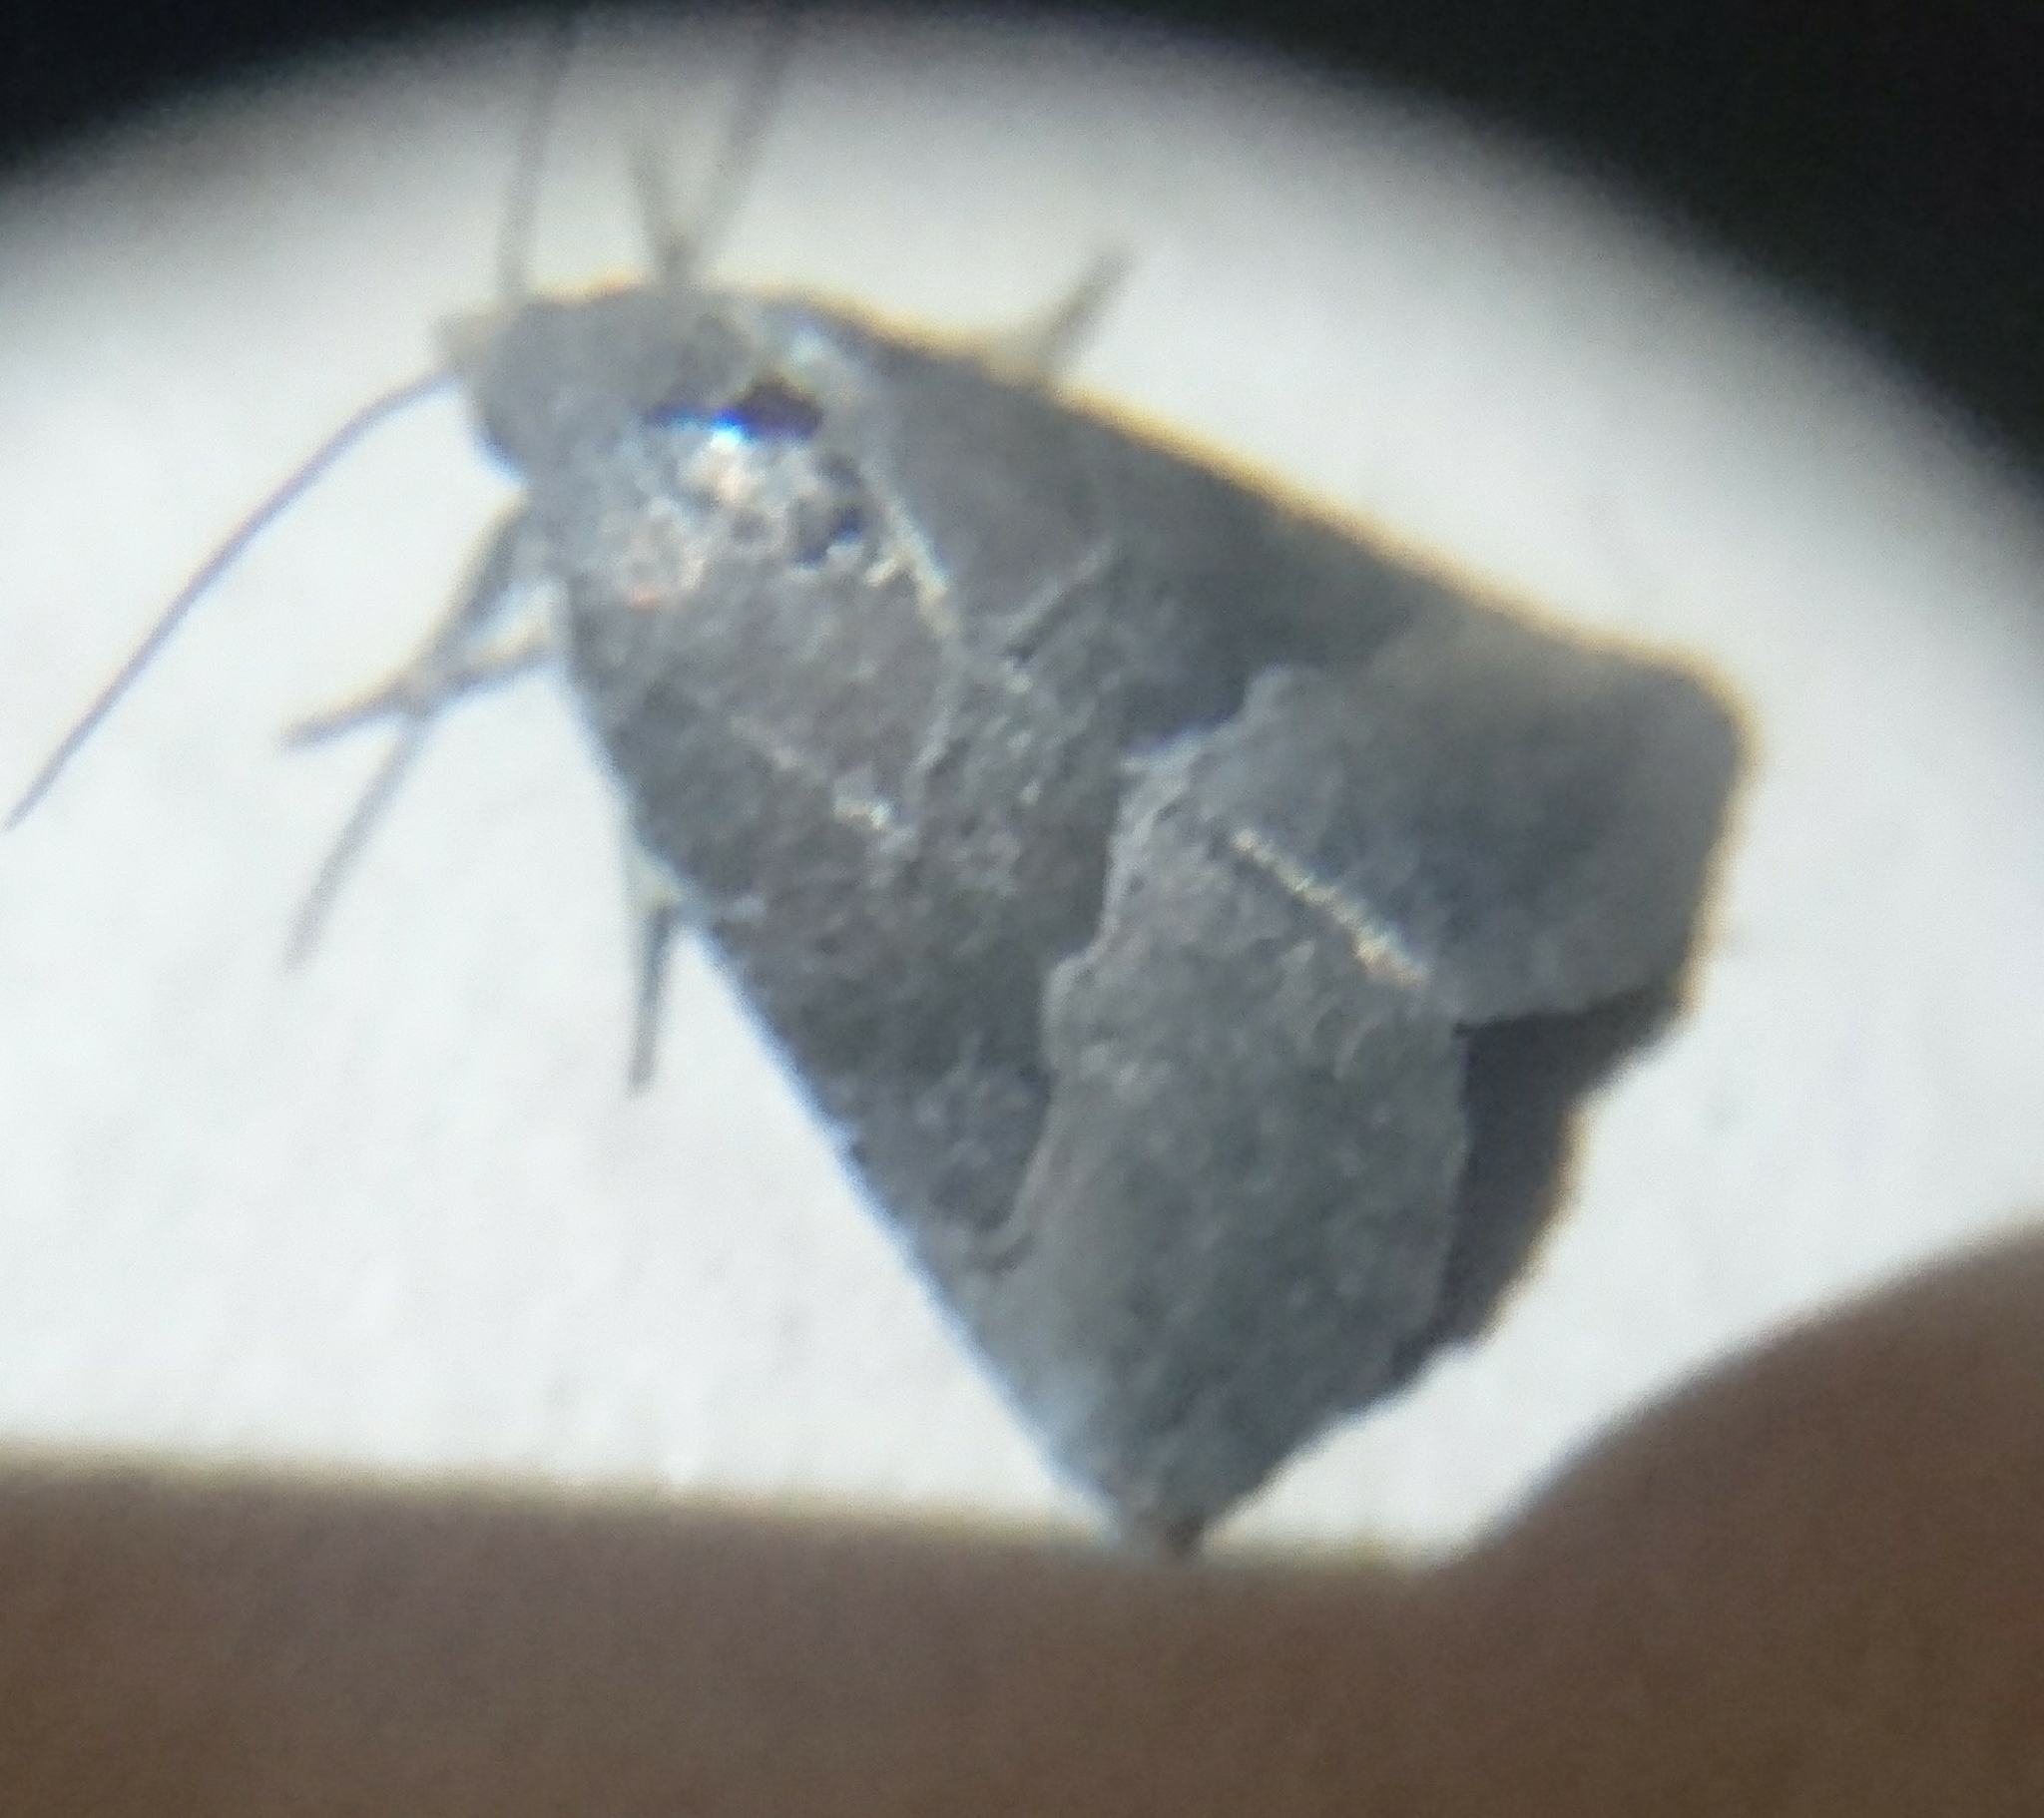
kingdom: Animalia
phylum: Arthropoda
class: Insecta
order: Lepidoptera
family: Noctuidae
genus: Ogdoconta
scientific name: Ogdoconta cinereola
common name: Common pinkband
